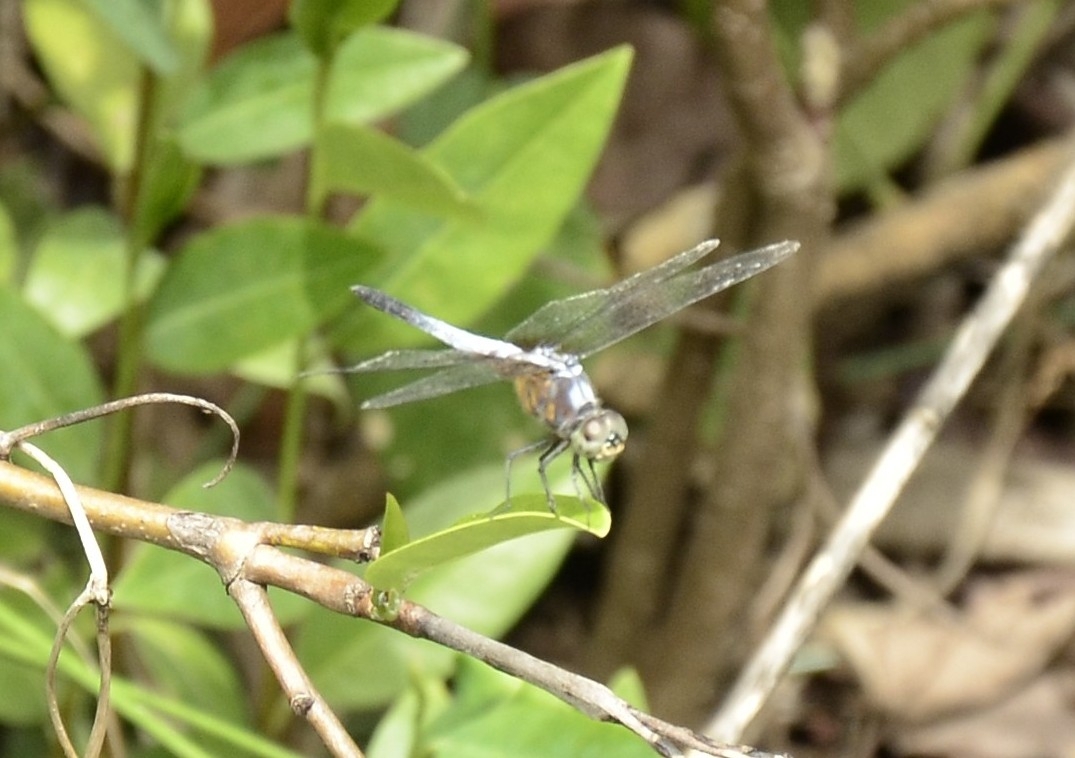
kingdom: Animalia
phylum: Arthropoda
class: Insecta
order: Odonata
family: Libellulidae
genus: Brachydiplax
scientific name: Brachydiplax chalybea
